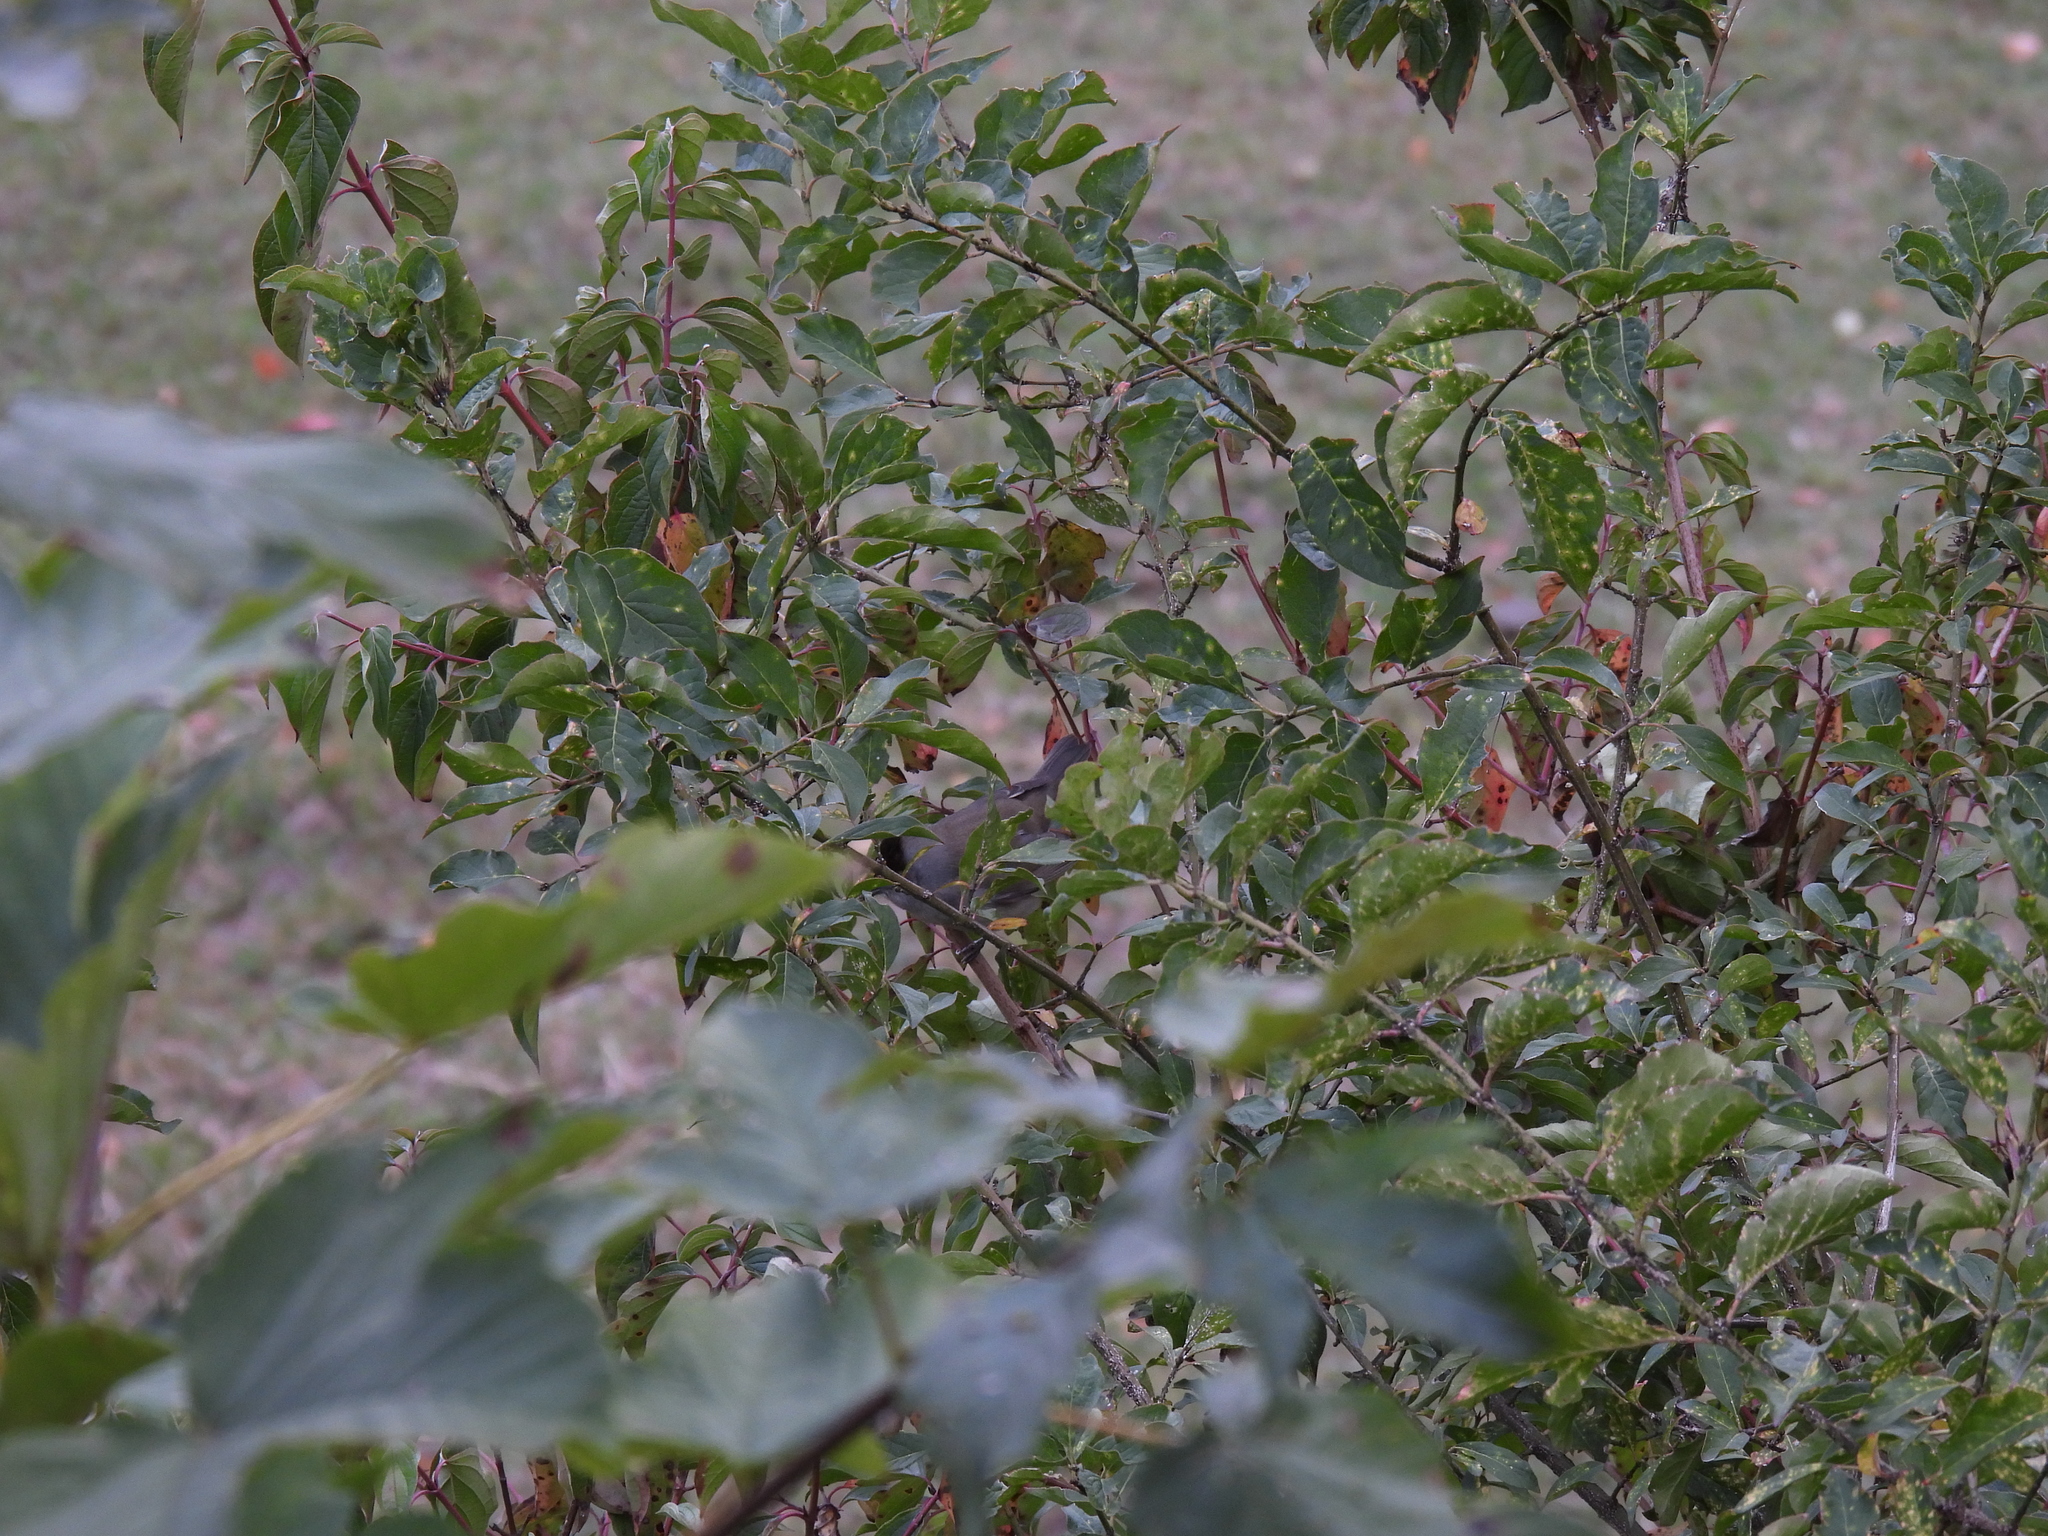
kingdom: Animalia
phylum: Chordata
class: Aves
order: Passeriformes
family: Sylviidae
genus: Sylvia
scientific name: Sylvia atricapilla
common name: Eurasian blackcap
